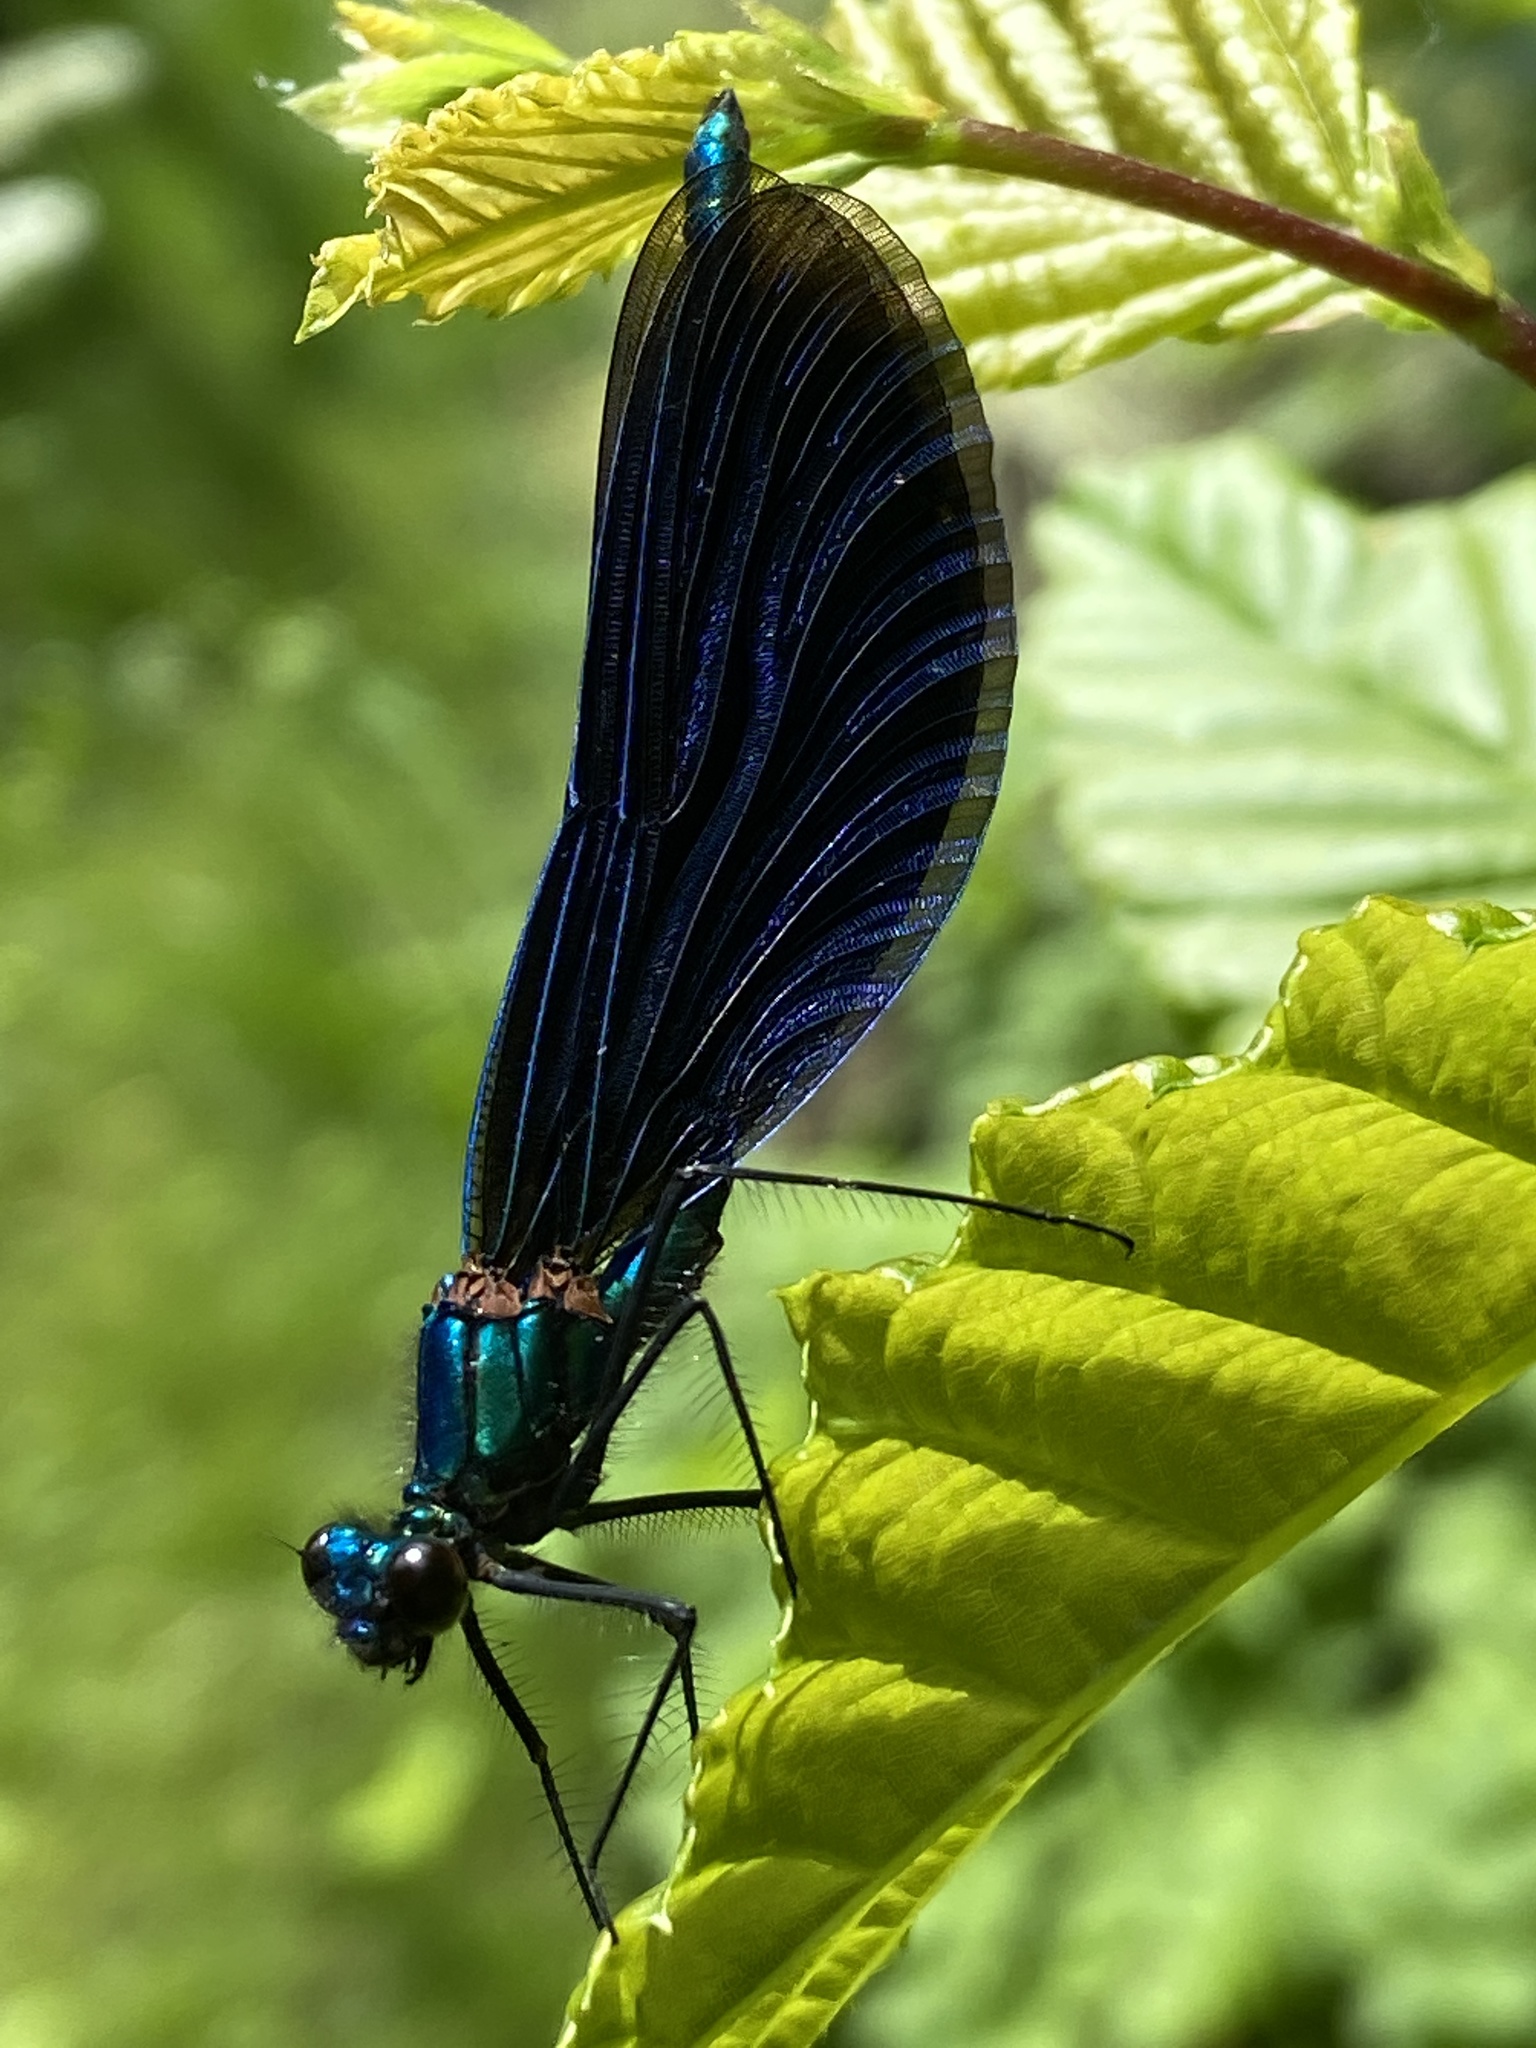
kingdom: Animalia
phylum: Arthropoda
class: Insecta
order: Odonata
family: Calopterygidae
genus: Calopteryx
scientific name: Calopteryx virgo
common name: Beautiful demoiselle
